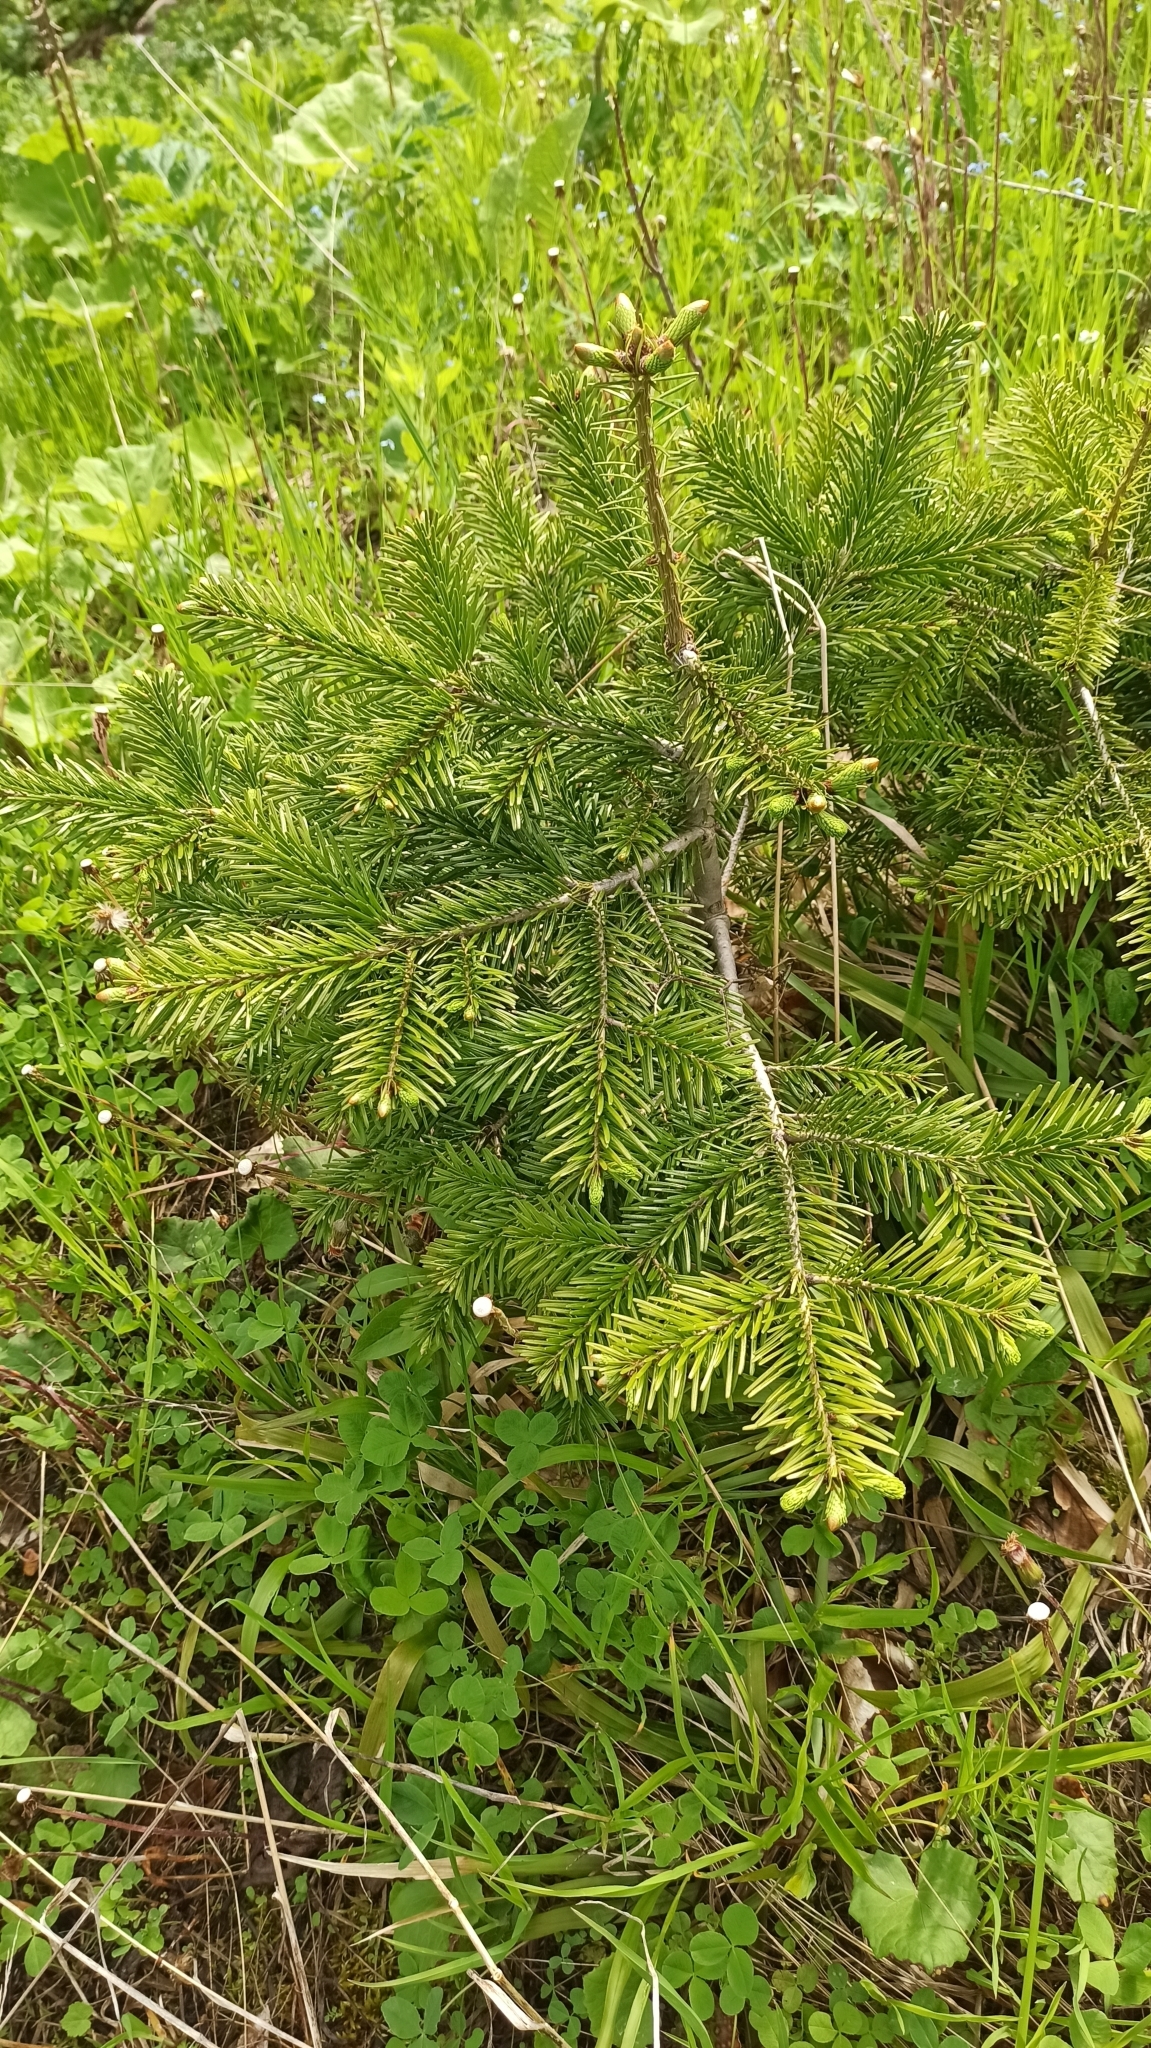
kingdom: Plantae
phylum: Tracheophyta
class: Pinopsida
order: Pinales
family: Pinaceae
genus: Abies
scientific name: Abies nordmanniana
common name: Caucasian fir
